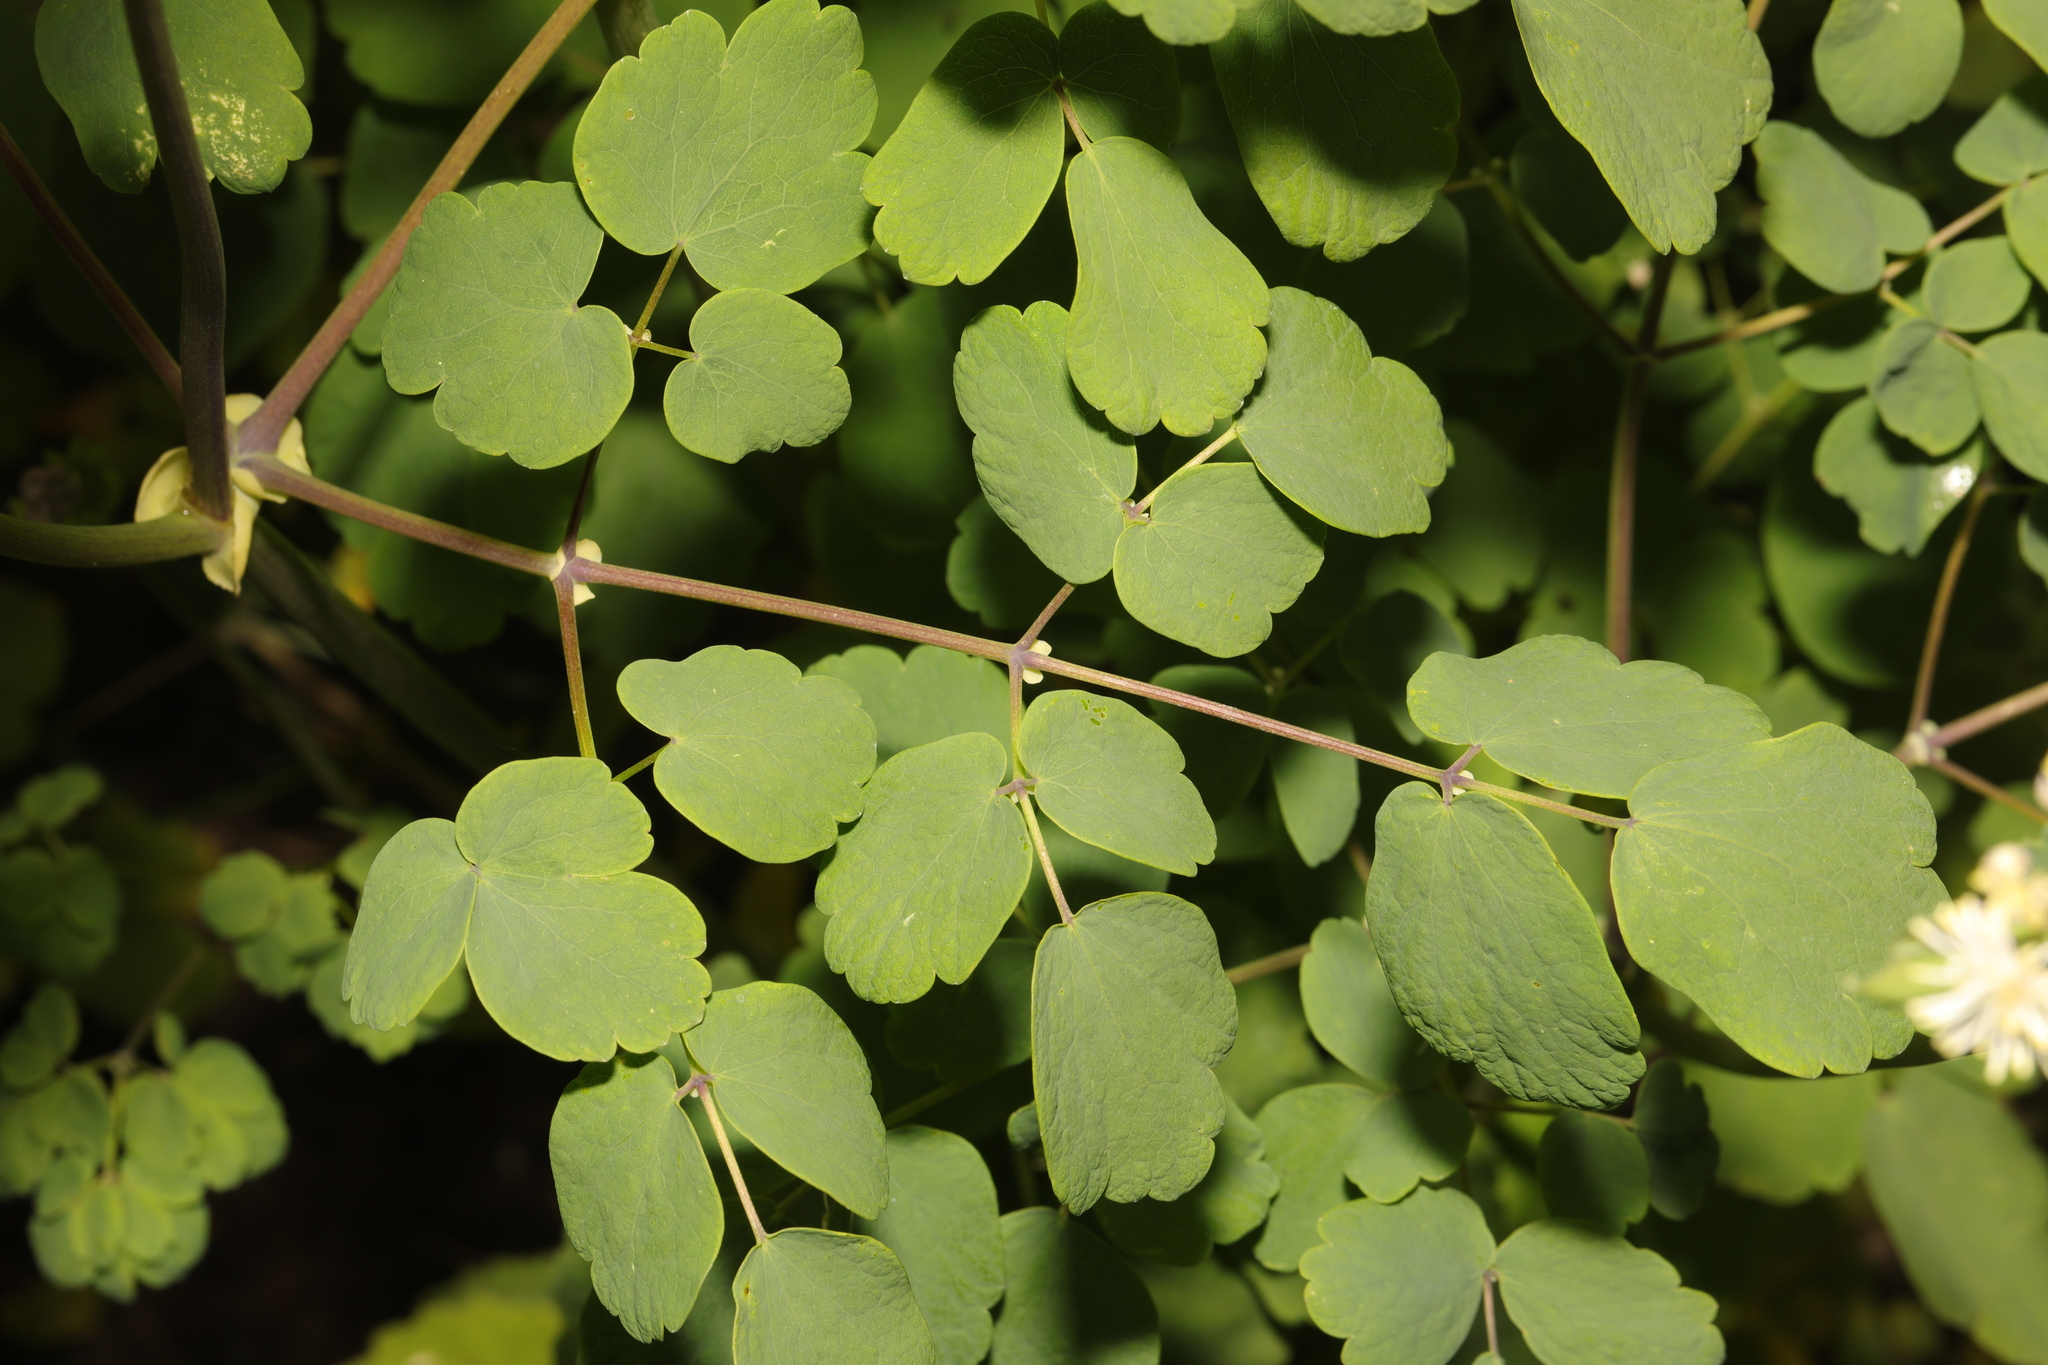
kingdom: Plantae
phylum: Tracheophyta
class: Magnoliopsida
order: Ranunculales
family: Ranunculaceae
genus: Thalictrum
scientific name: Thalictrum flavum
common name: Common meadow-rue
